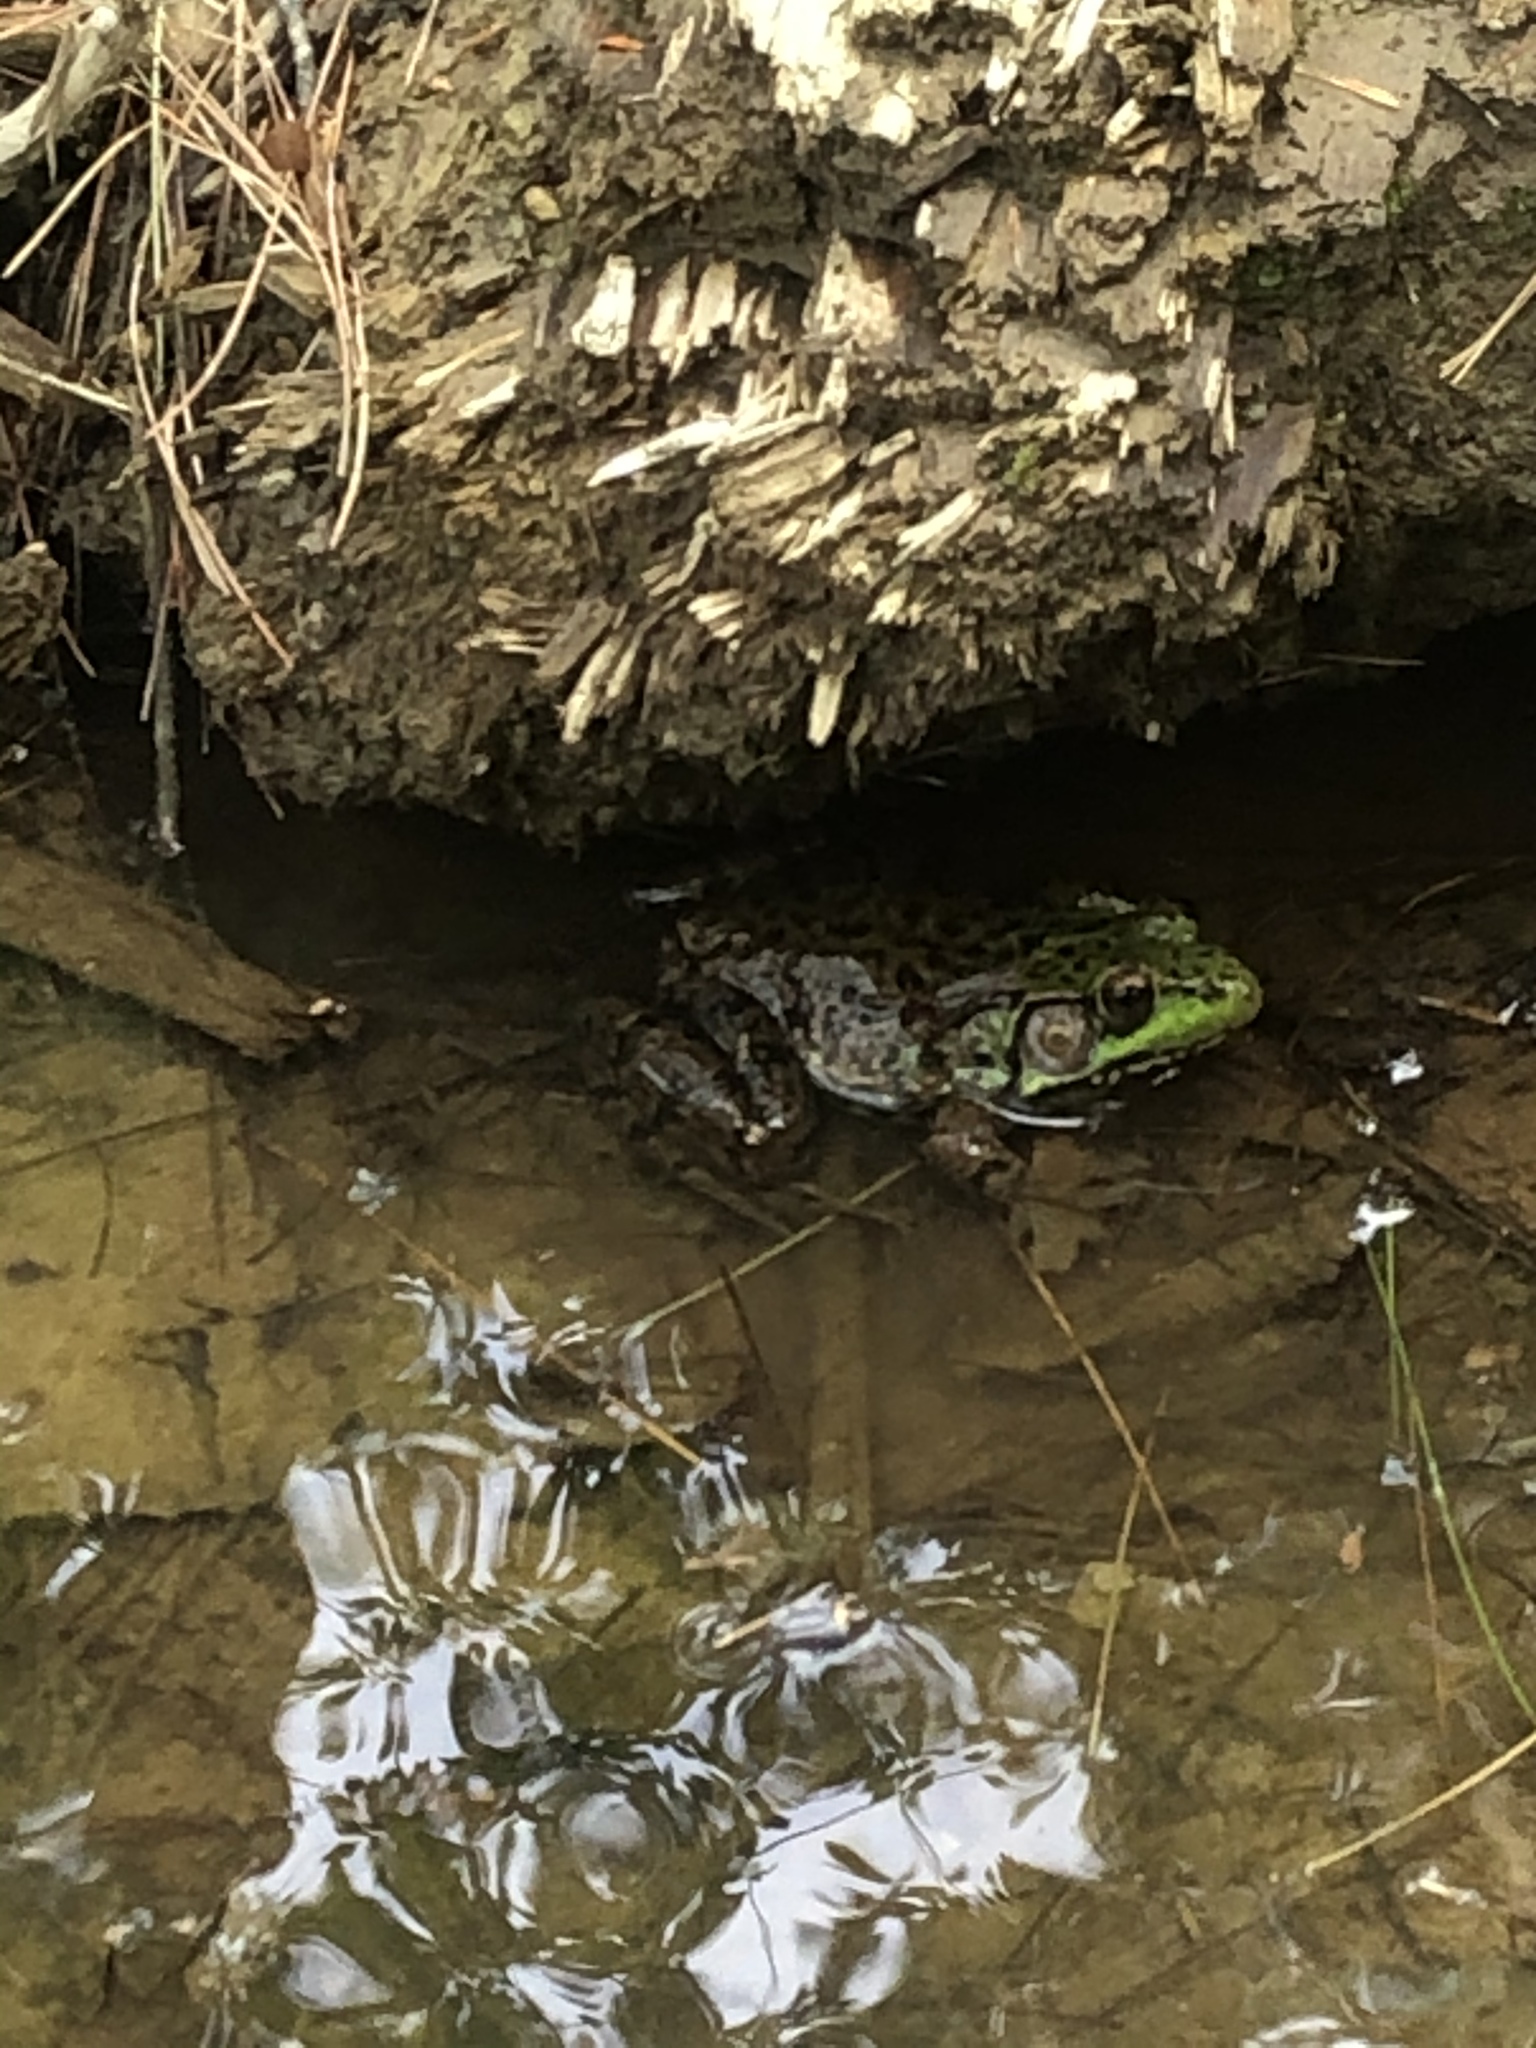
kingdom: Animalia
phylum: Chordata
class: Amphibia
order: Anura
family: Ranidae
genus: Lithobates
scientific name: Lithobates clamitans
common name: Green frog
